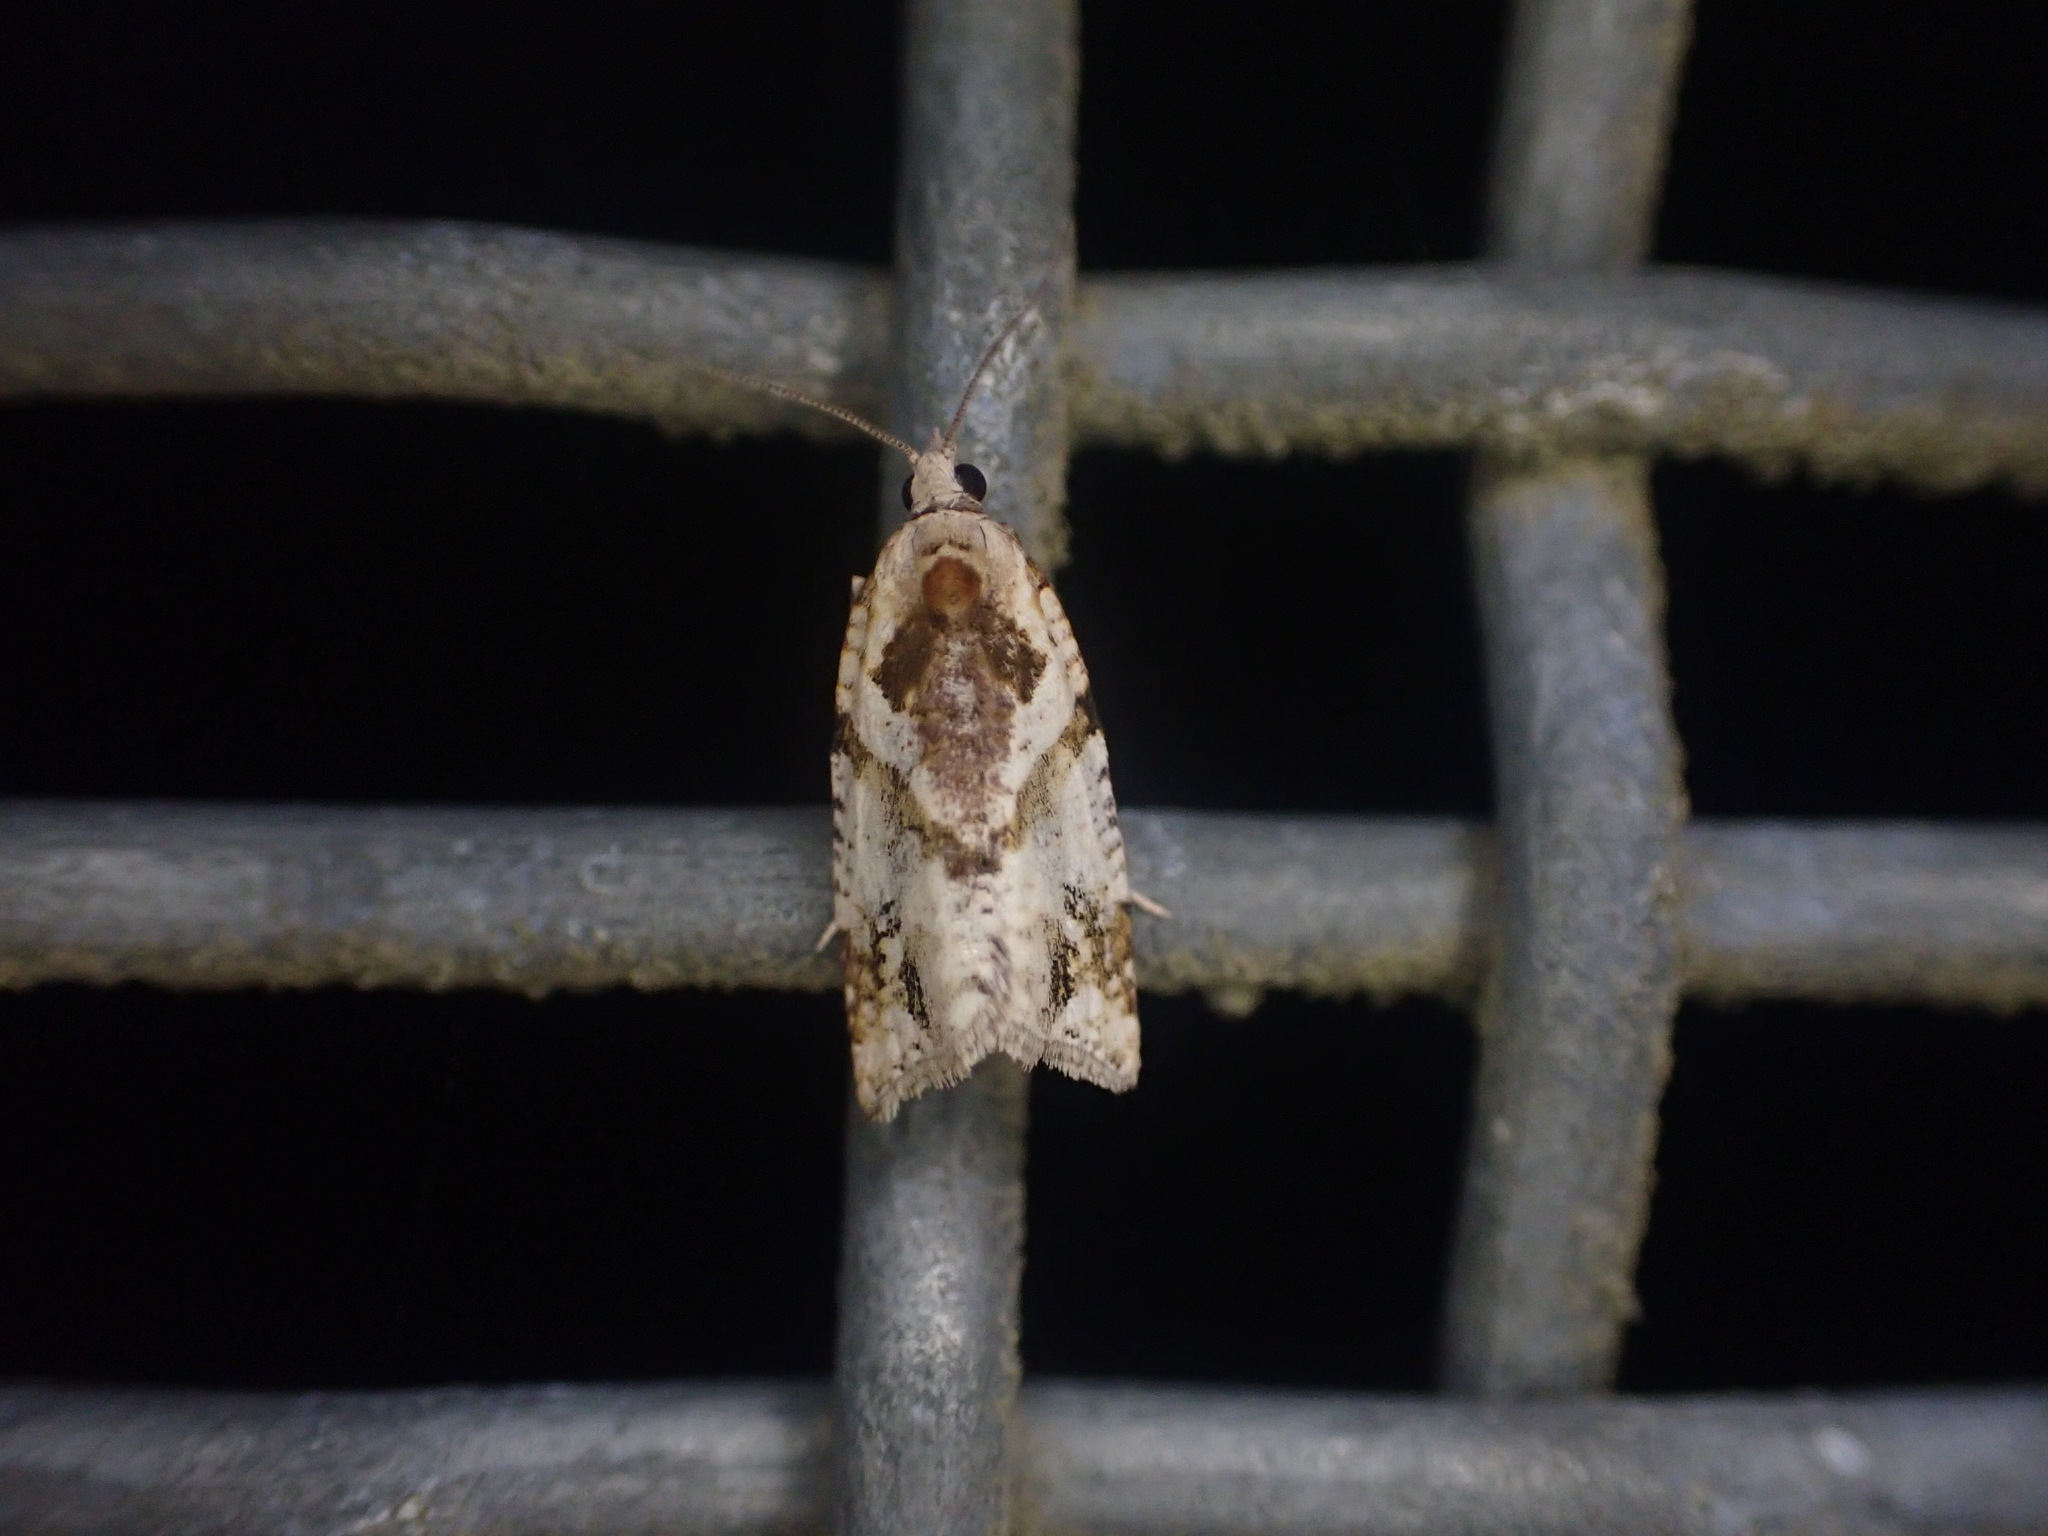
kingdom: Animalia
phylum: Arthropoda
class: Insecta
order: Lepidoptera
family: Tortricidae
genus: Pyrgotis
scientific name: Pyrgotis plagiatana
